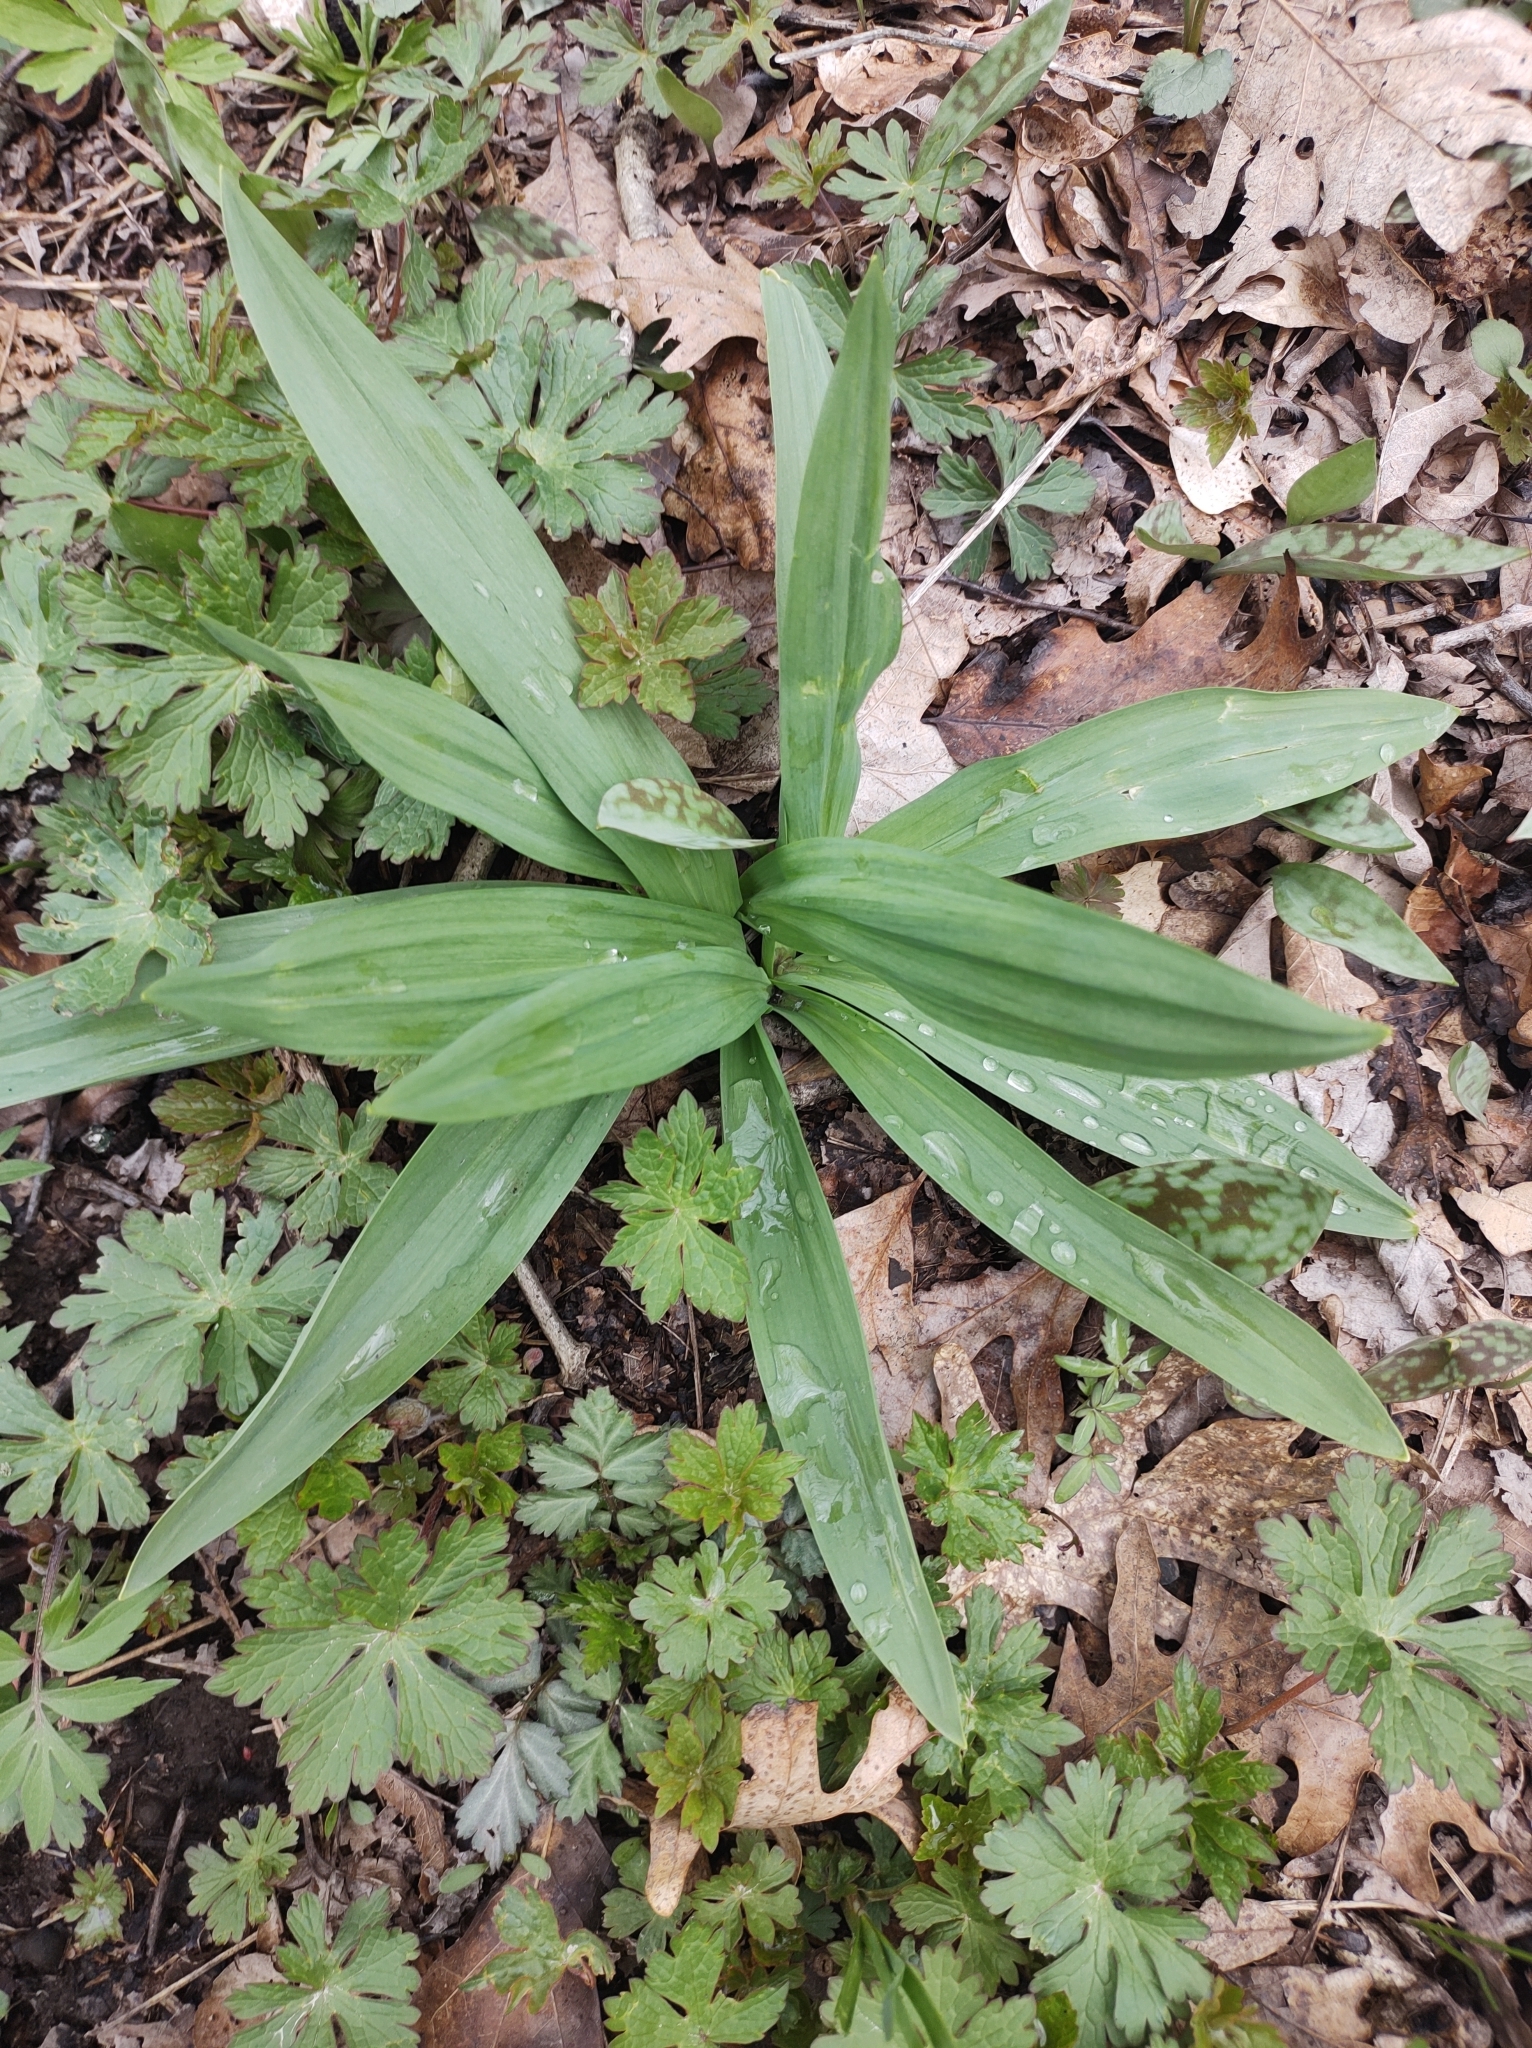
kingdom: Plantae
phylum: Tracheophyta
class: Liliopsida
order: Asparagales
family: Amaryllidaceae
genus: Allium
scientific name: Allium tricoccum
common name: Ramp
